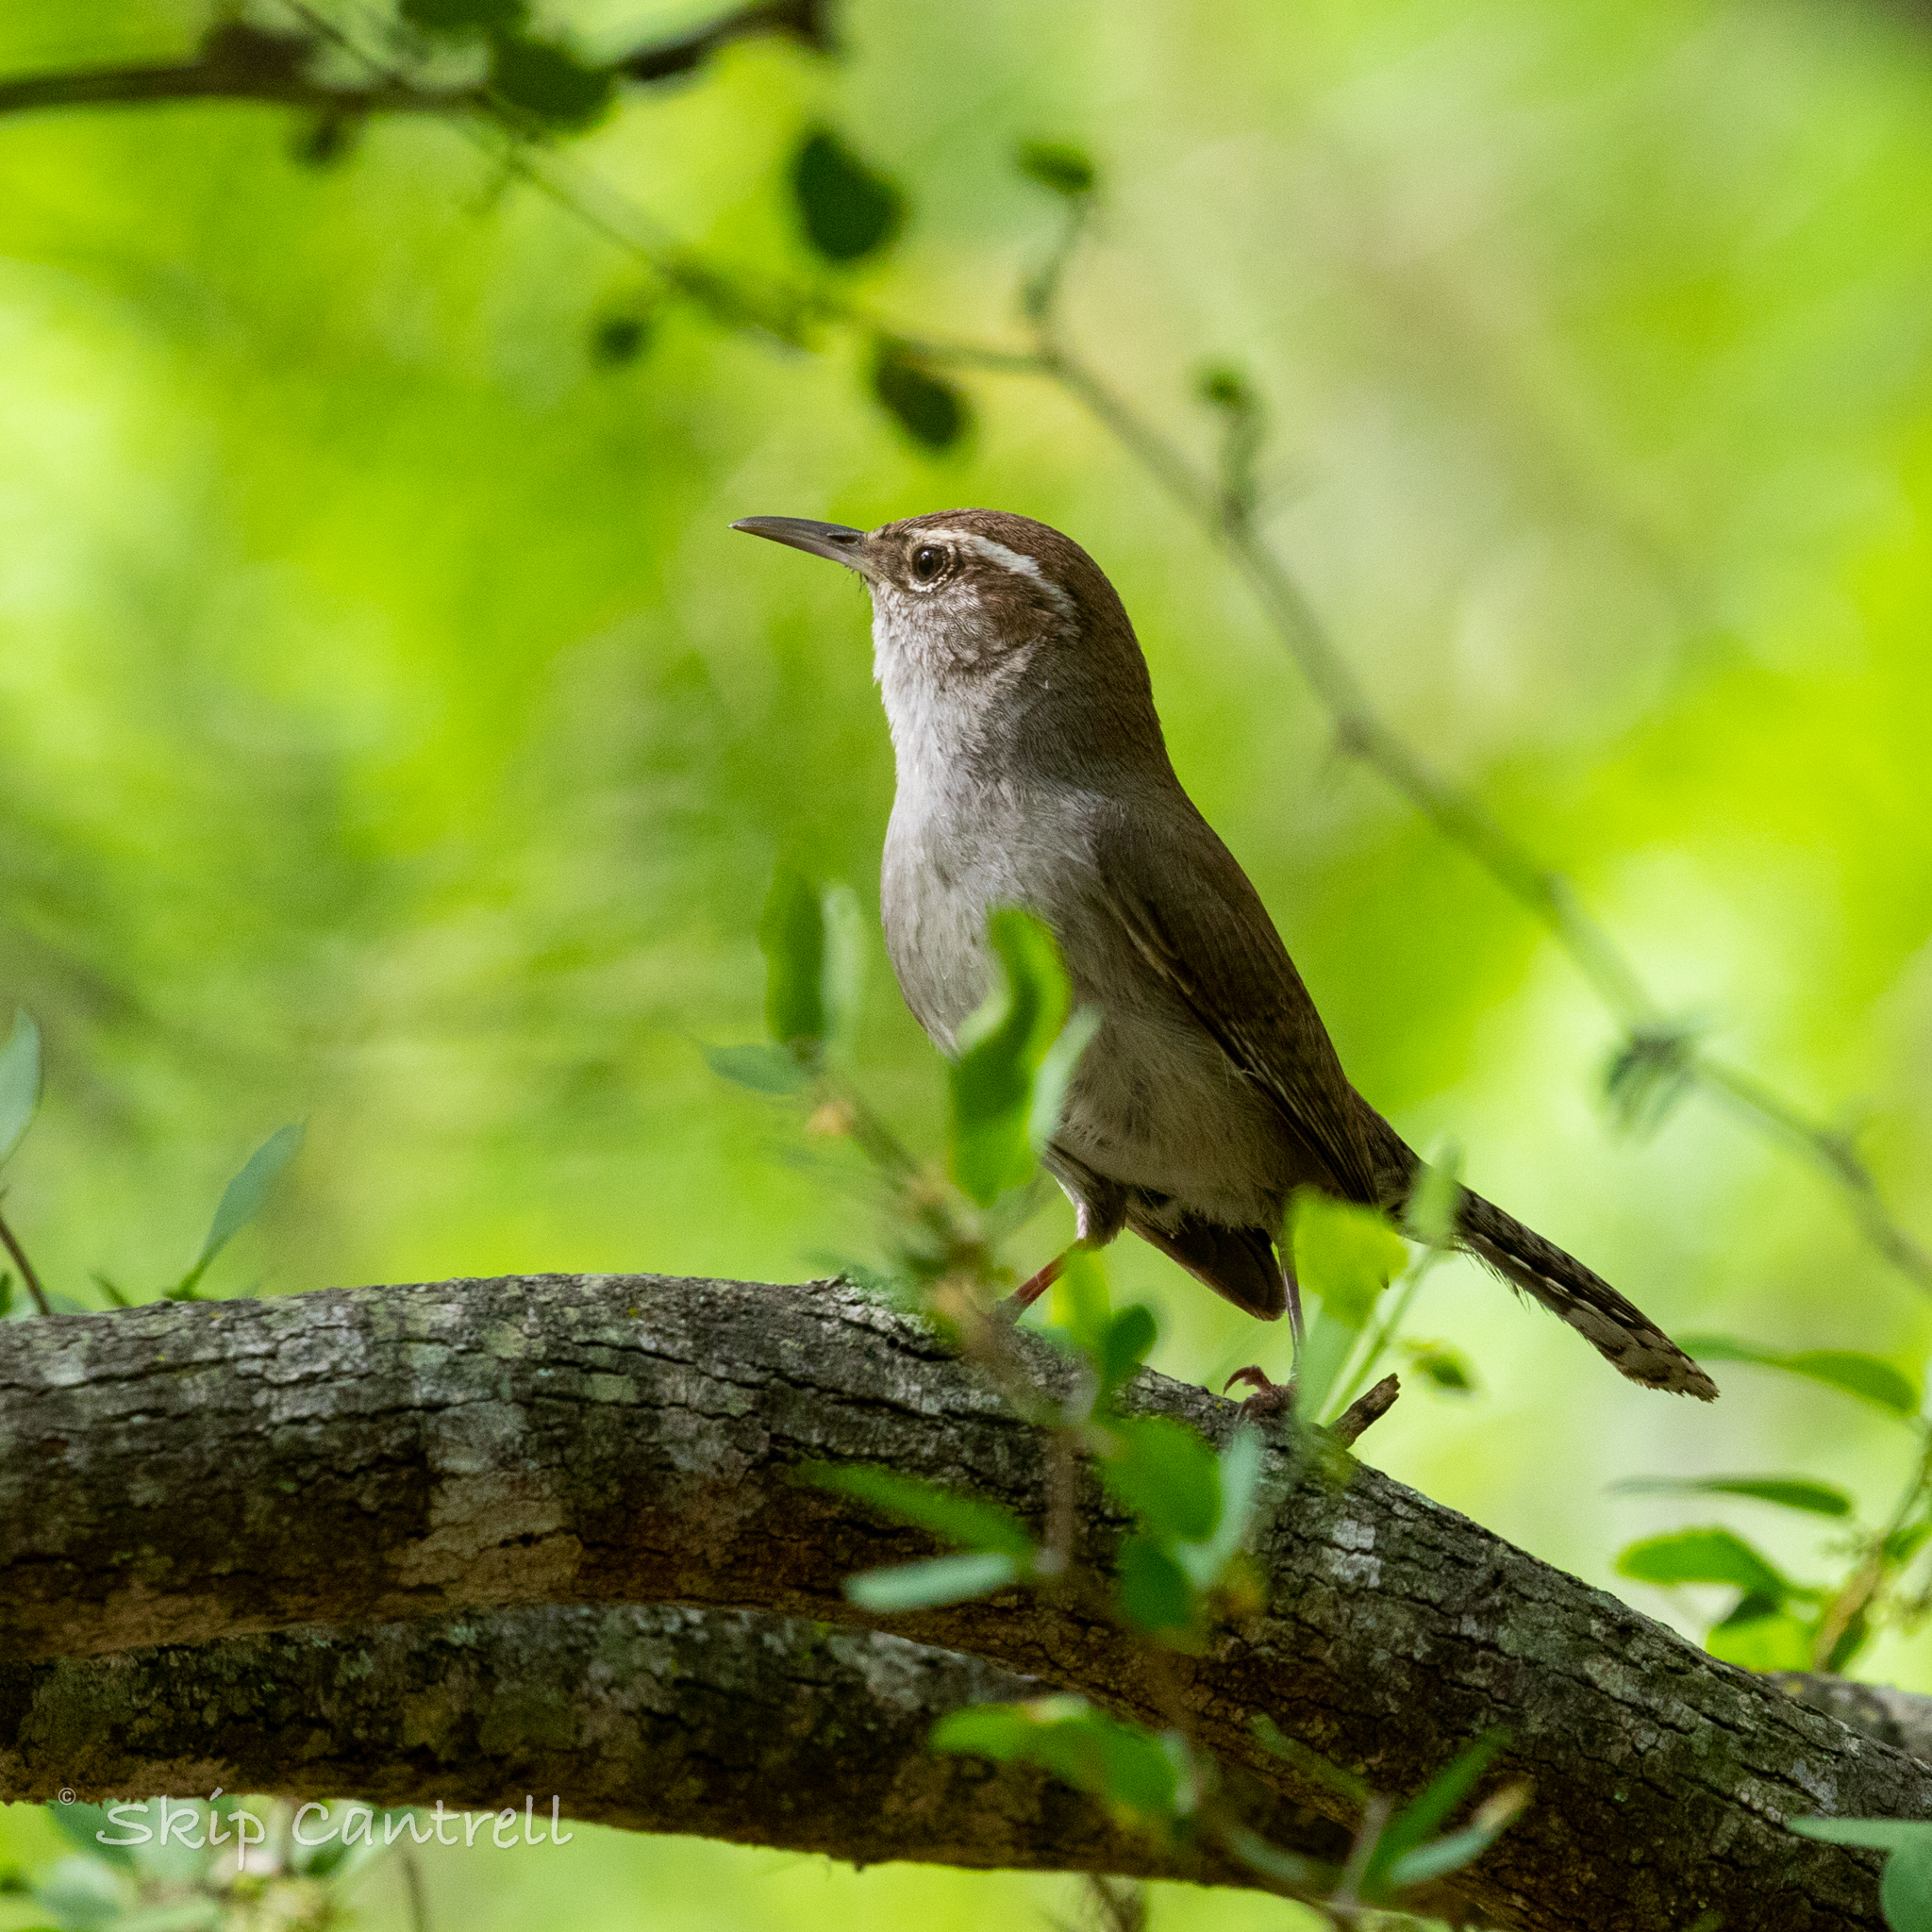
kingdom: Animalia
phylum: Chordata
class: Aves
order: Passeriformes
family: Troglodytidae
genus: Thryomanes
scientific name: Thryomanes bewickii
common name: Bewick's wren
